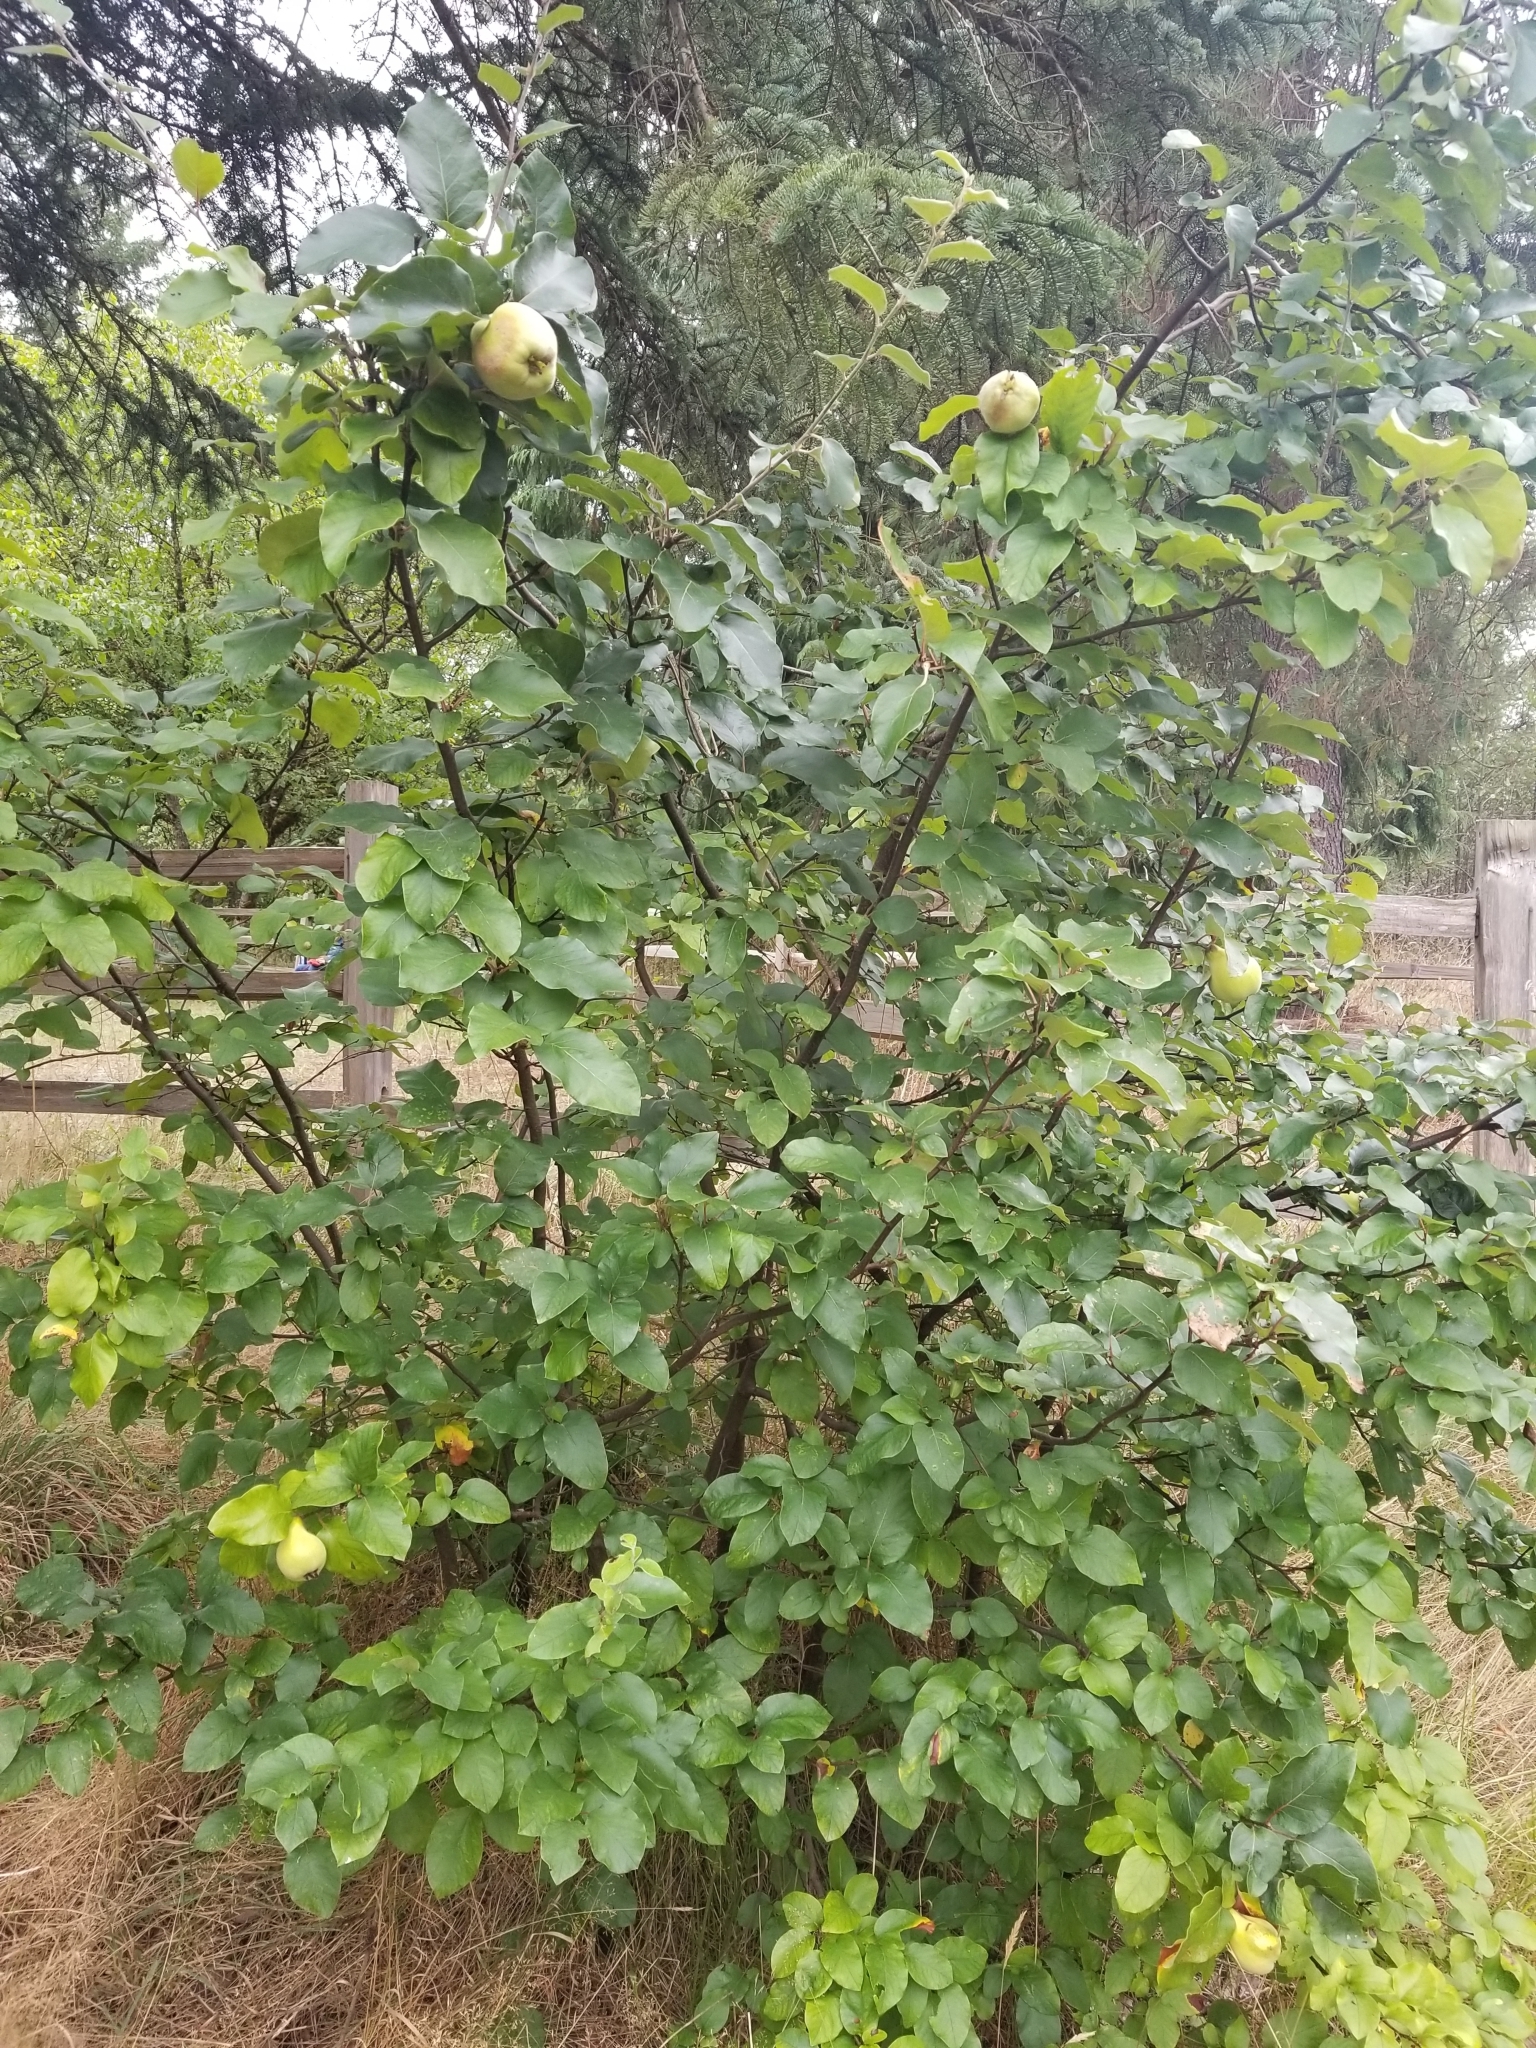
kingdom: Plantae
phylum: Tracheophyta
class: Magnoliopsida
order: Rosales
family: Rosaceae
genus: Cydonia
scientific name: Cydonia oblonga
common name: Quince
